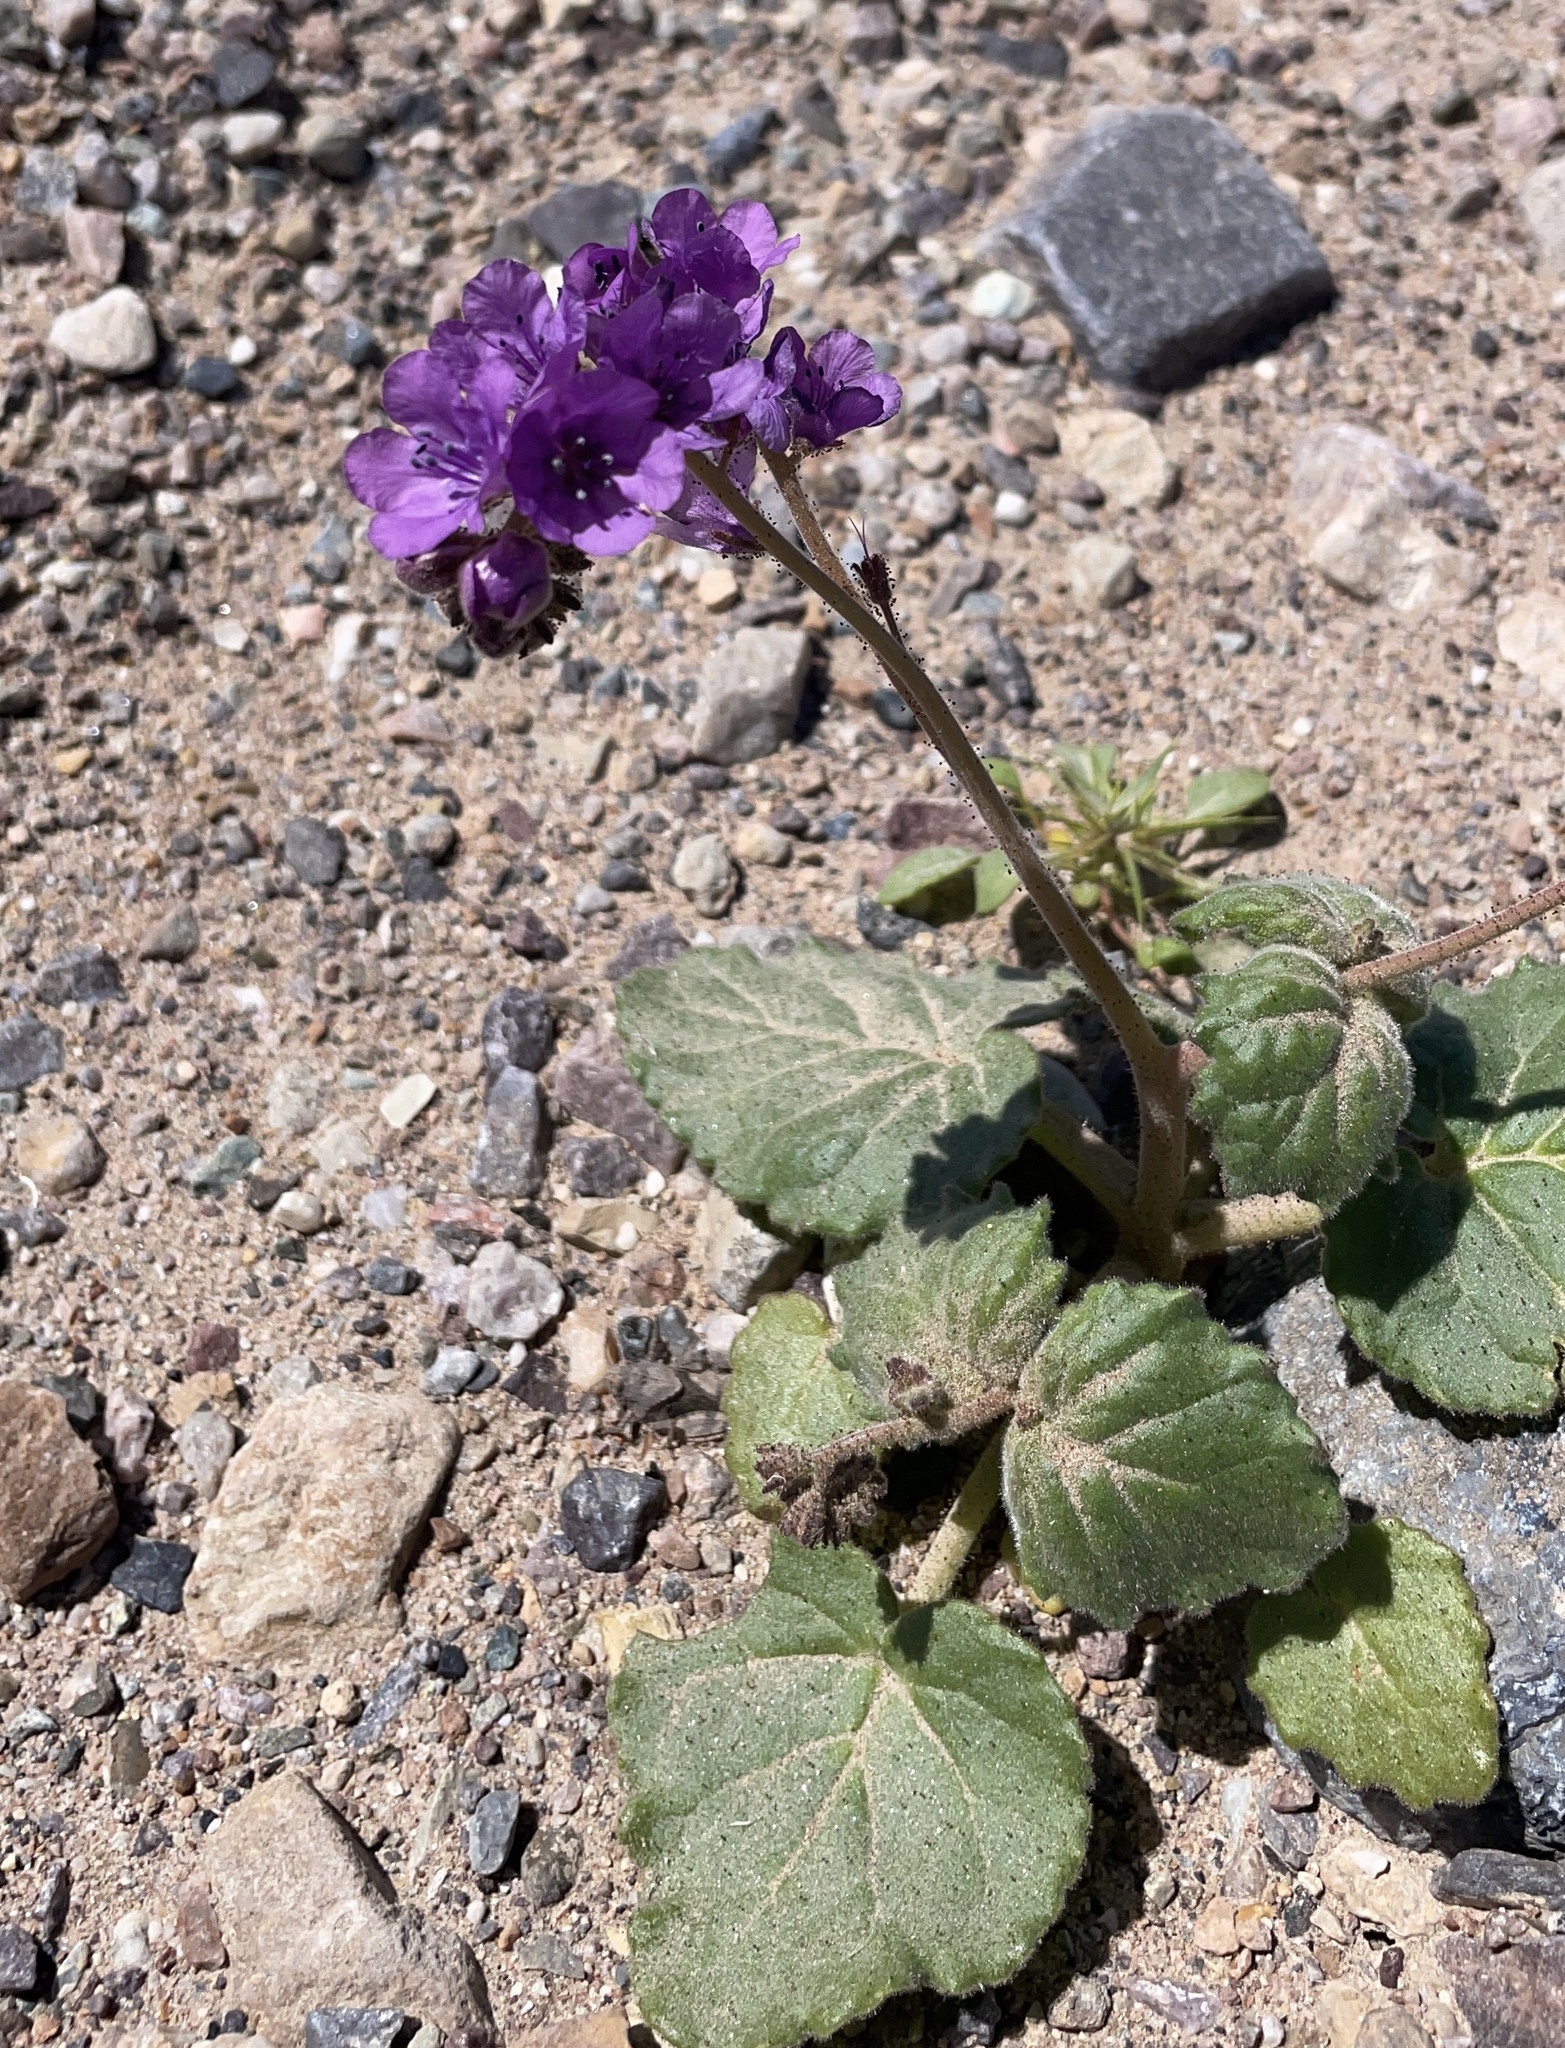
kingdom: Plantae
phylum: Tracheophyta
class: Magnoliopsida
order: Boraginales
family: Hydrophyllaceae
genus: Phacelia
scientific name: Phacelia calthifolia
